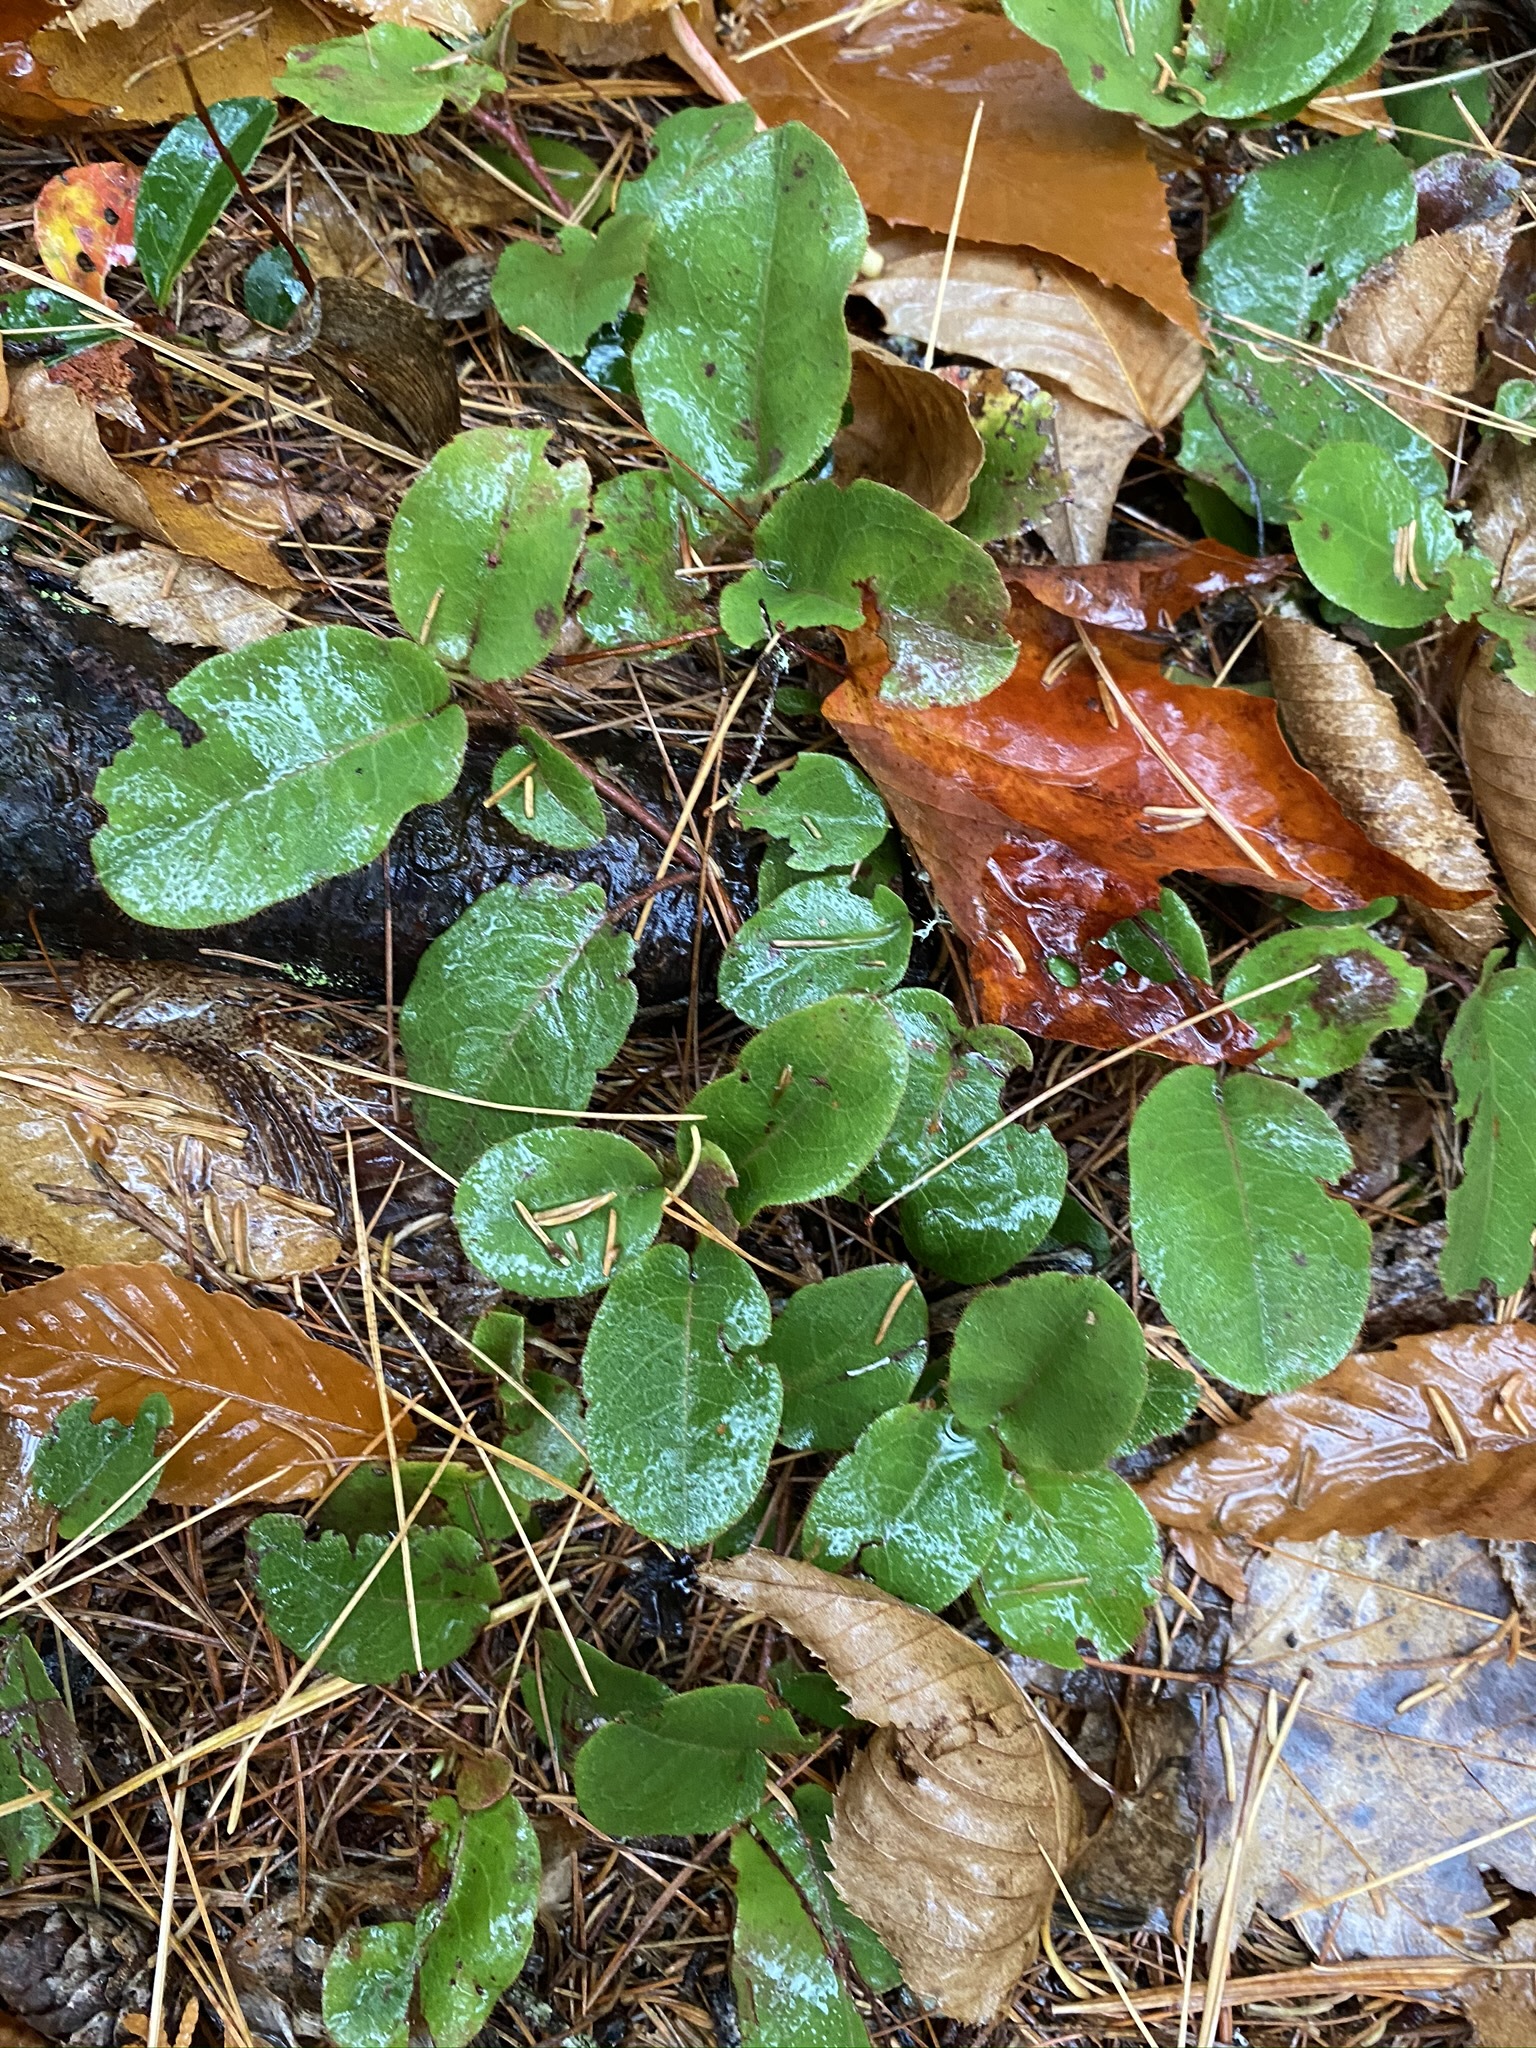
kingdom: Plantae
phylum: Tracheophyta
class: Magnoliopsida
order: Ericales
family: Ericaceae
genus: Epigaea
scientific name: Epigaea repens
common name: Gravelroot
